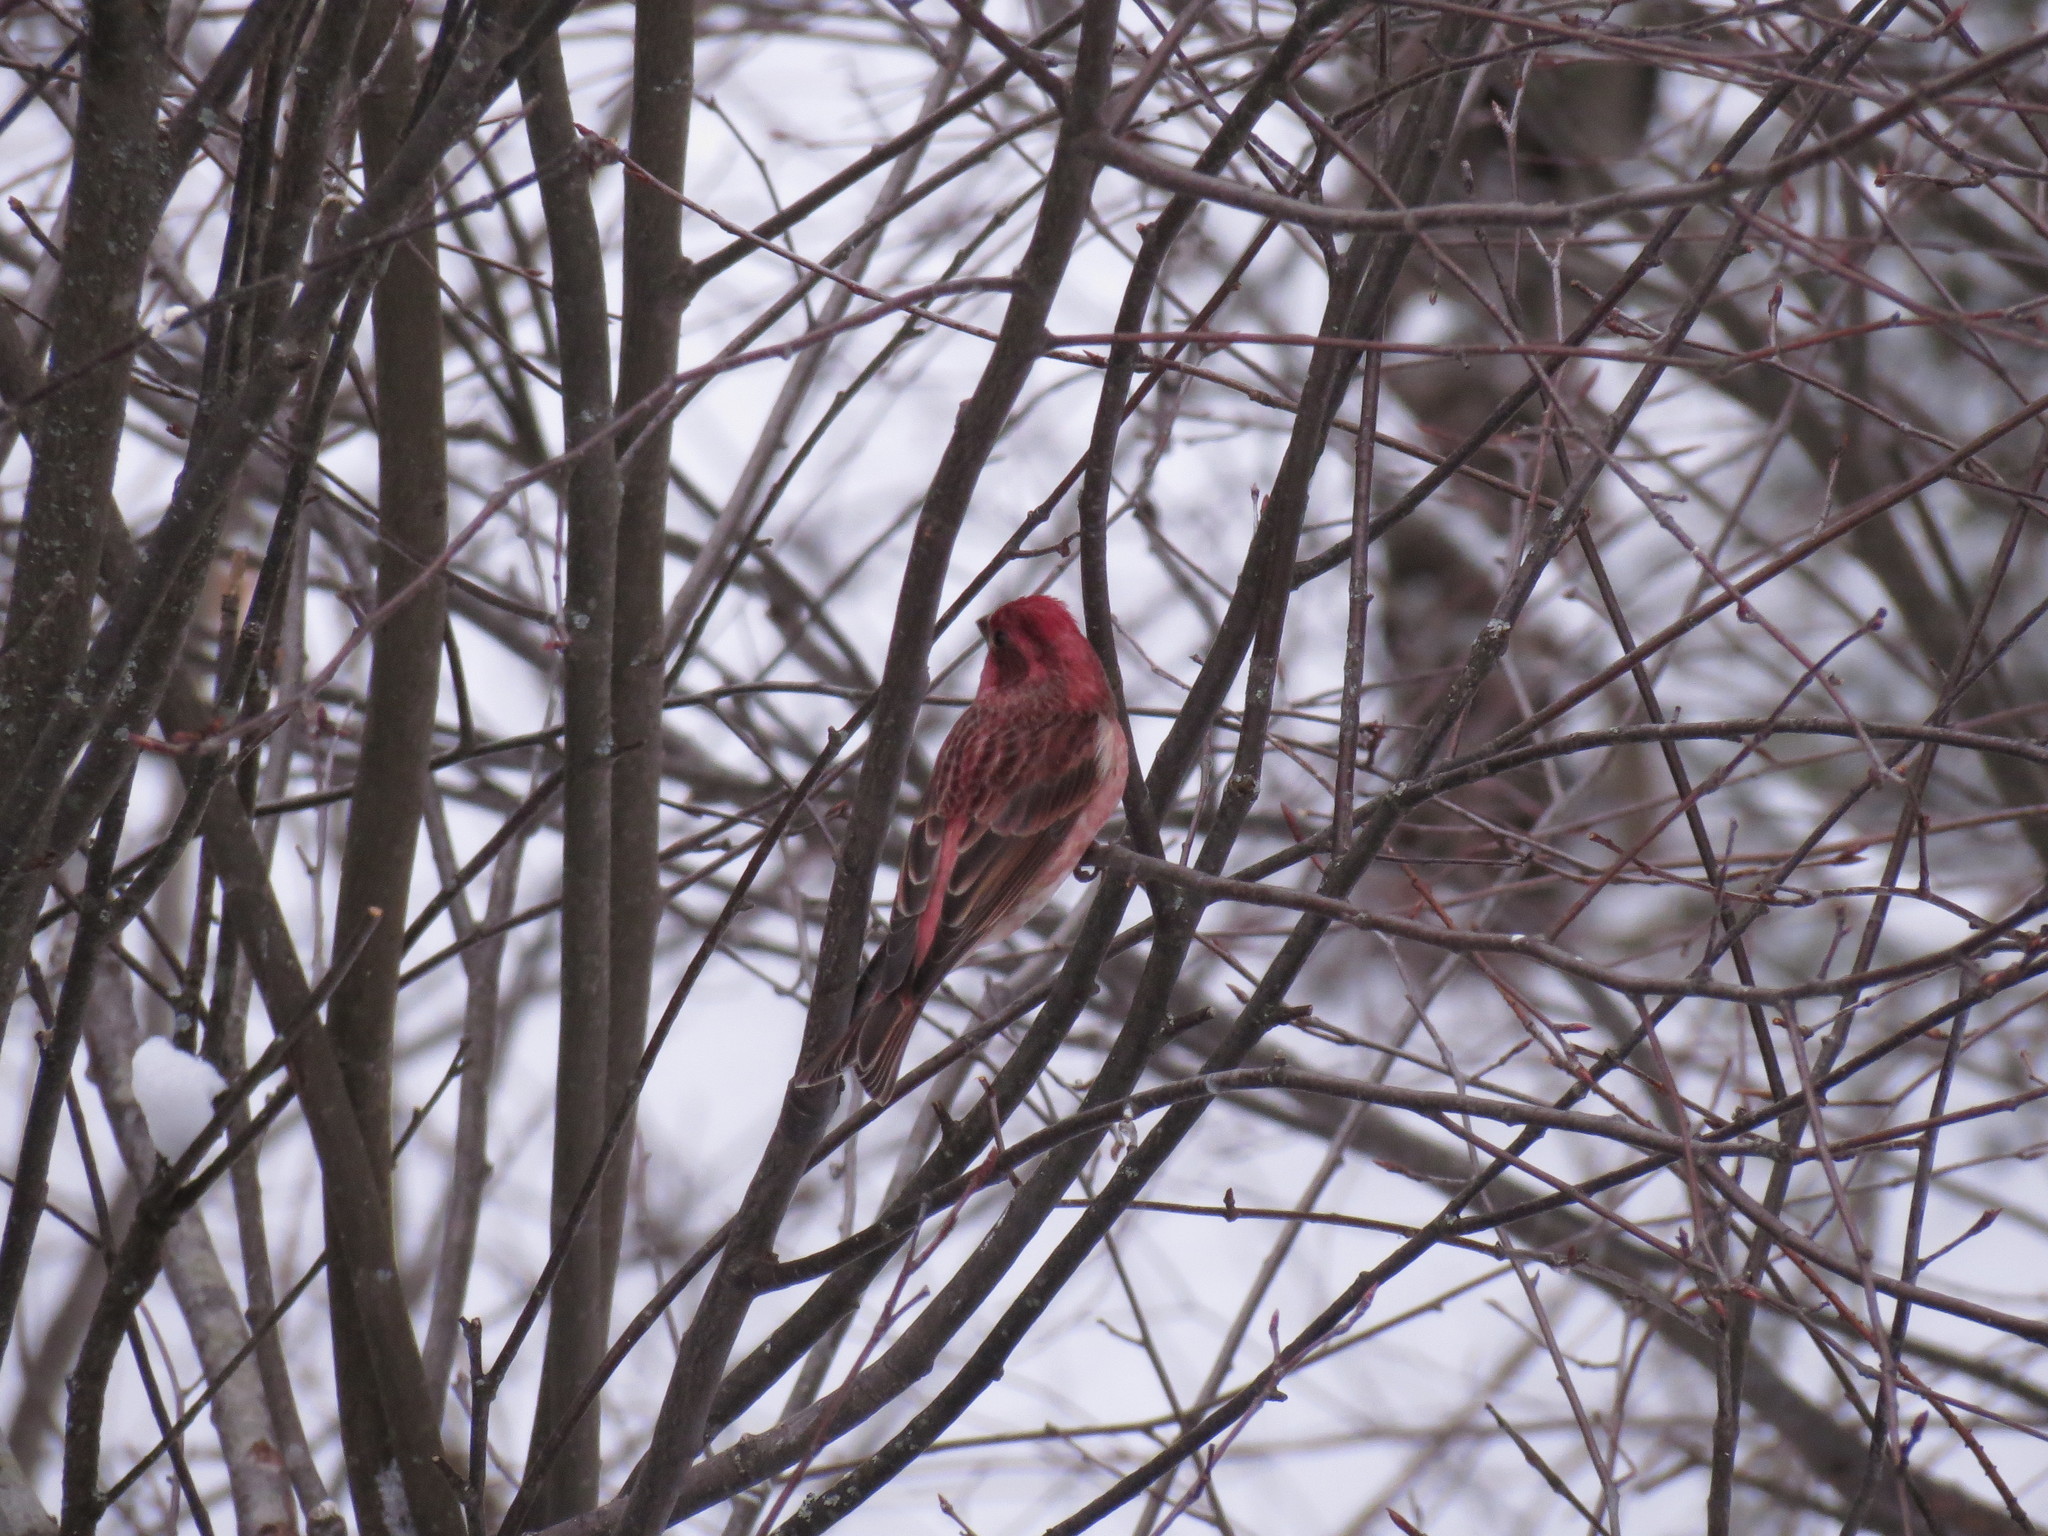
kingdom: Animalia
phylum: Chordata
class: Aves
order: Passeriformes
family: Fringillidae
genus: Haemorhous
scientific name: Haemorhous purpureus
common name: Purple finch
